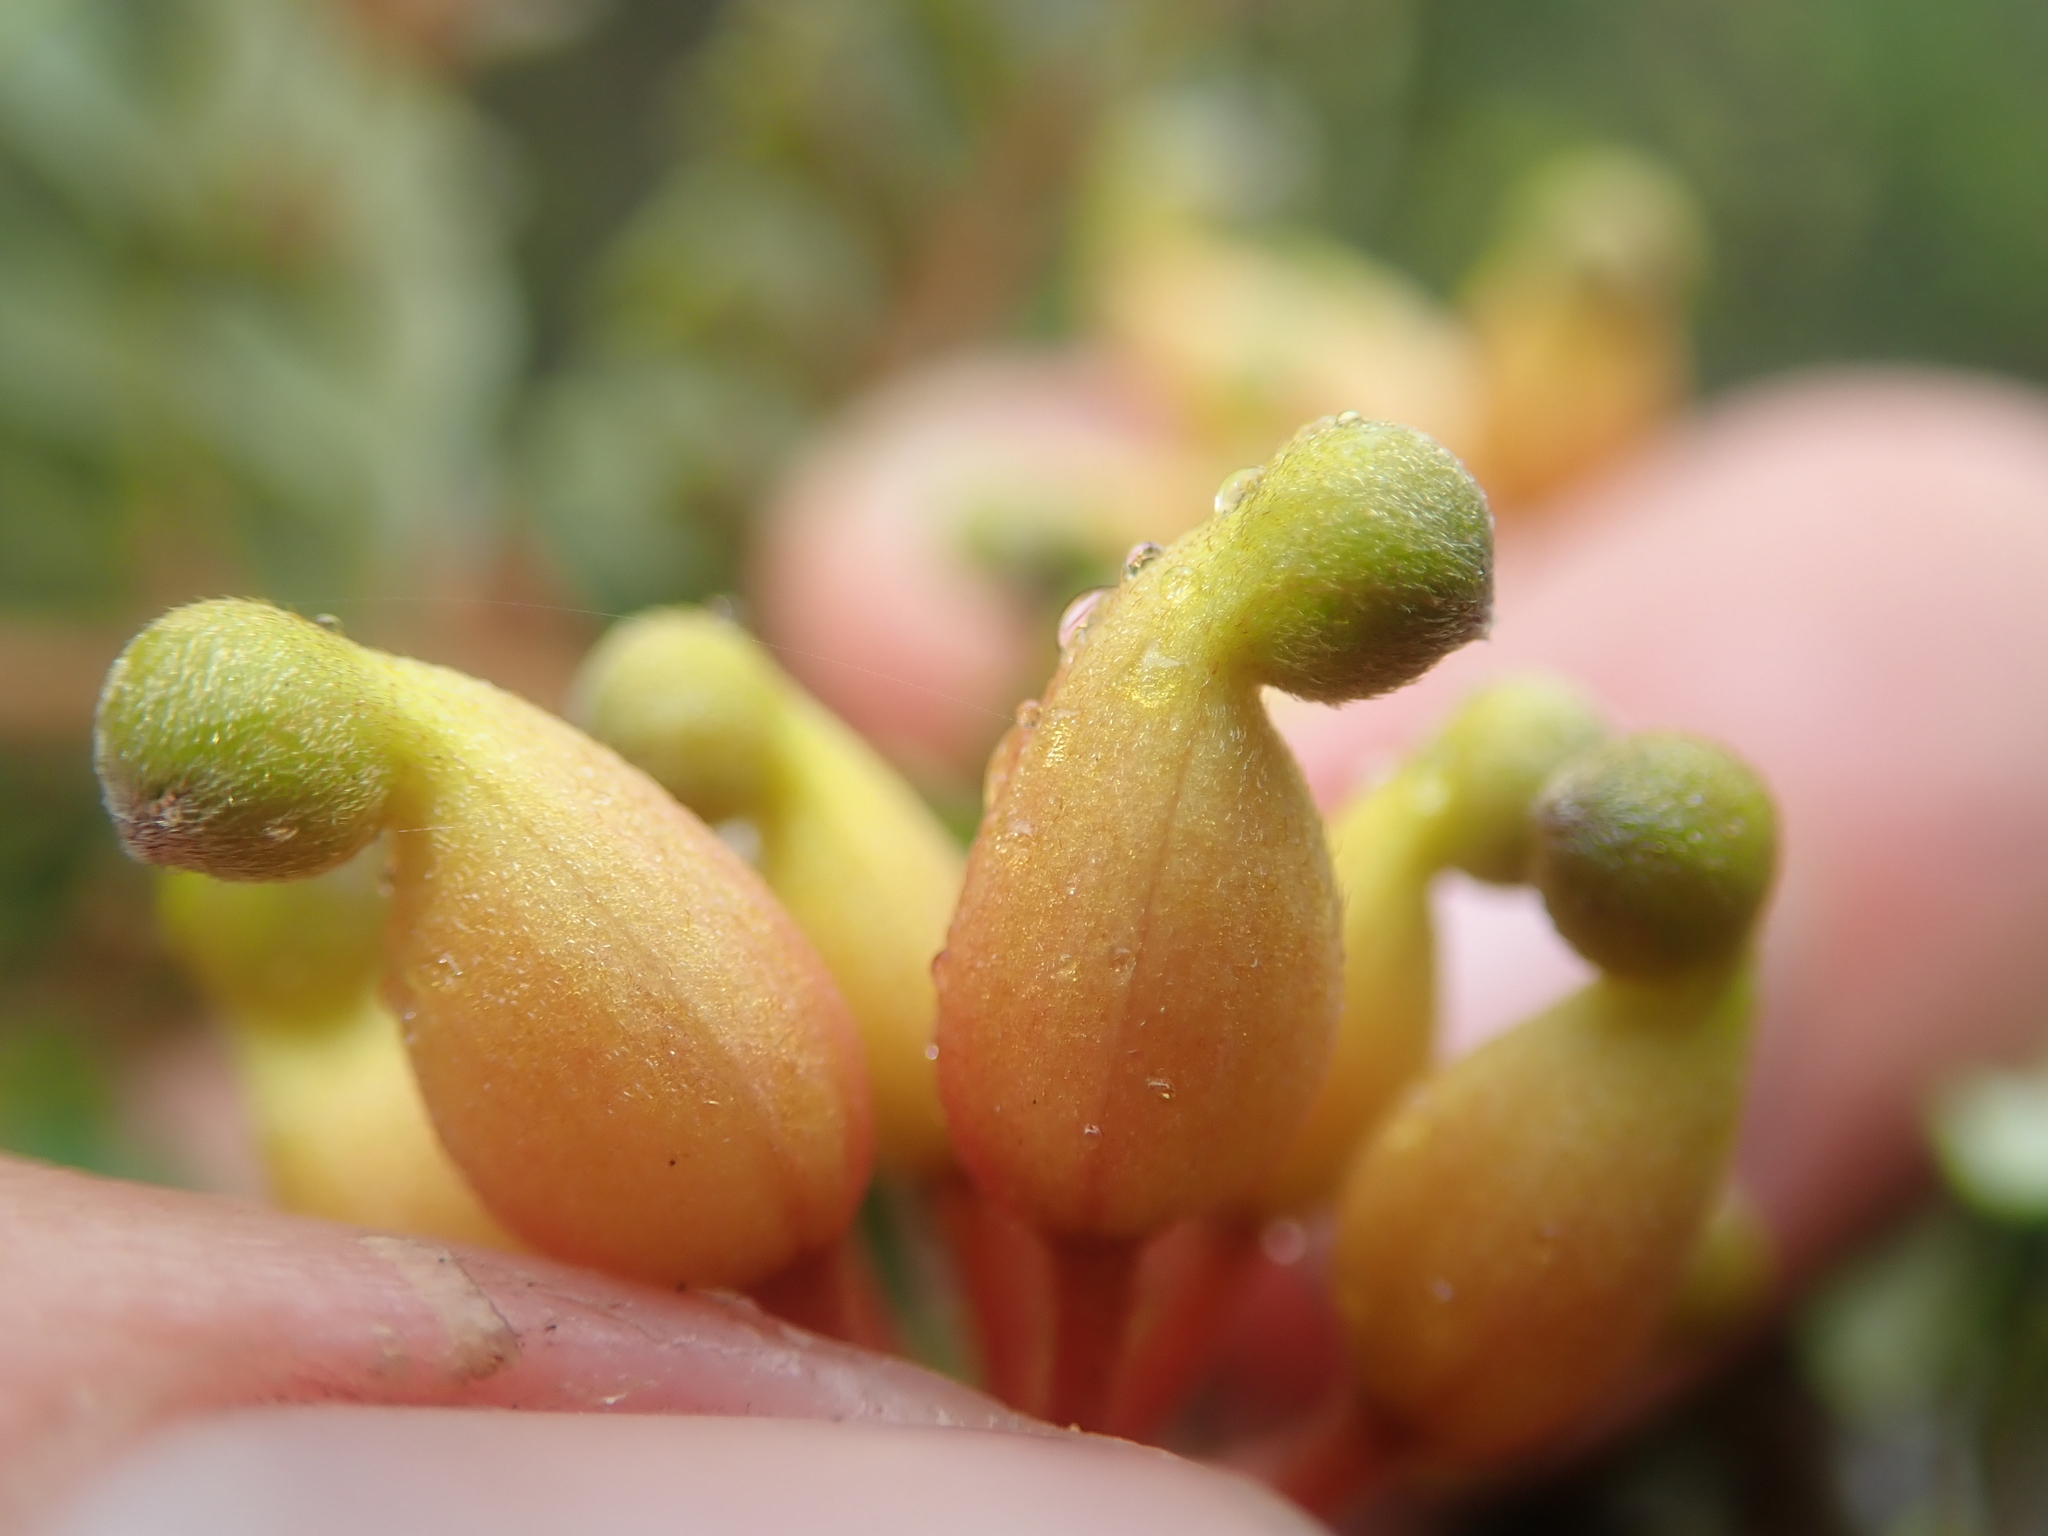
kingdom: Plantae
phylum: Tracheophyta
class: Magnoliopsida
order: Proteales
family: Proteaceae
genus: Lomatia
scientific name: Lomatia ferruginea
